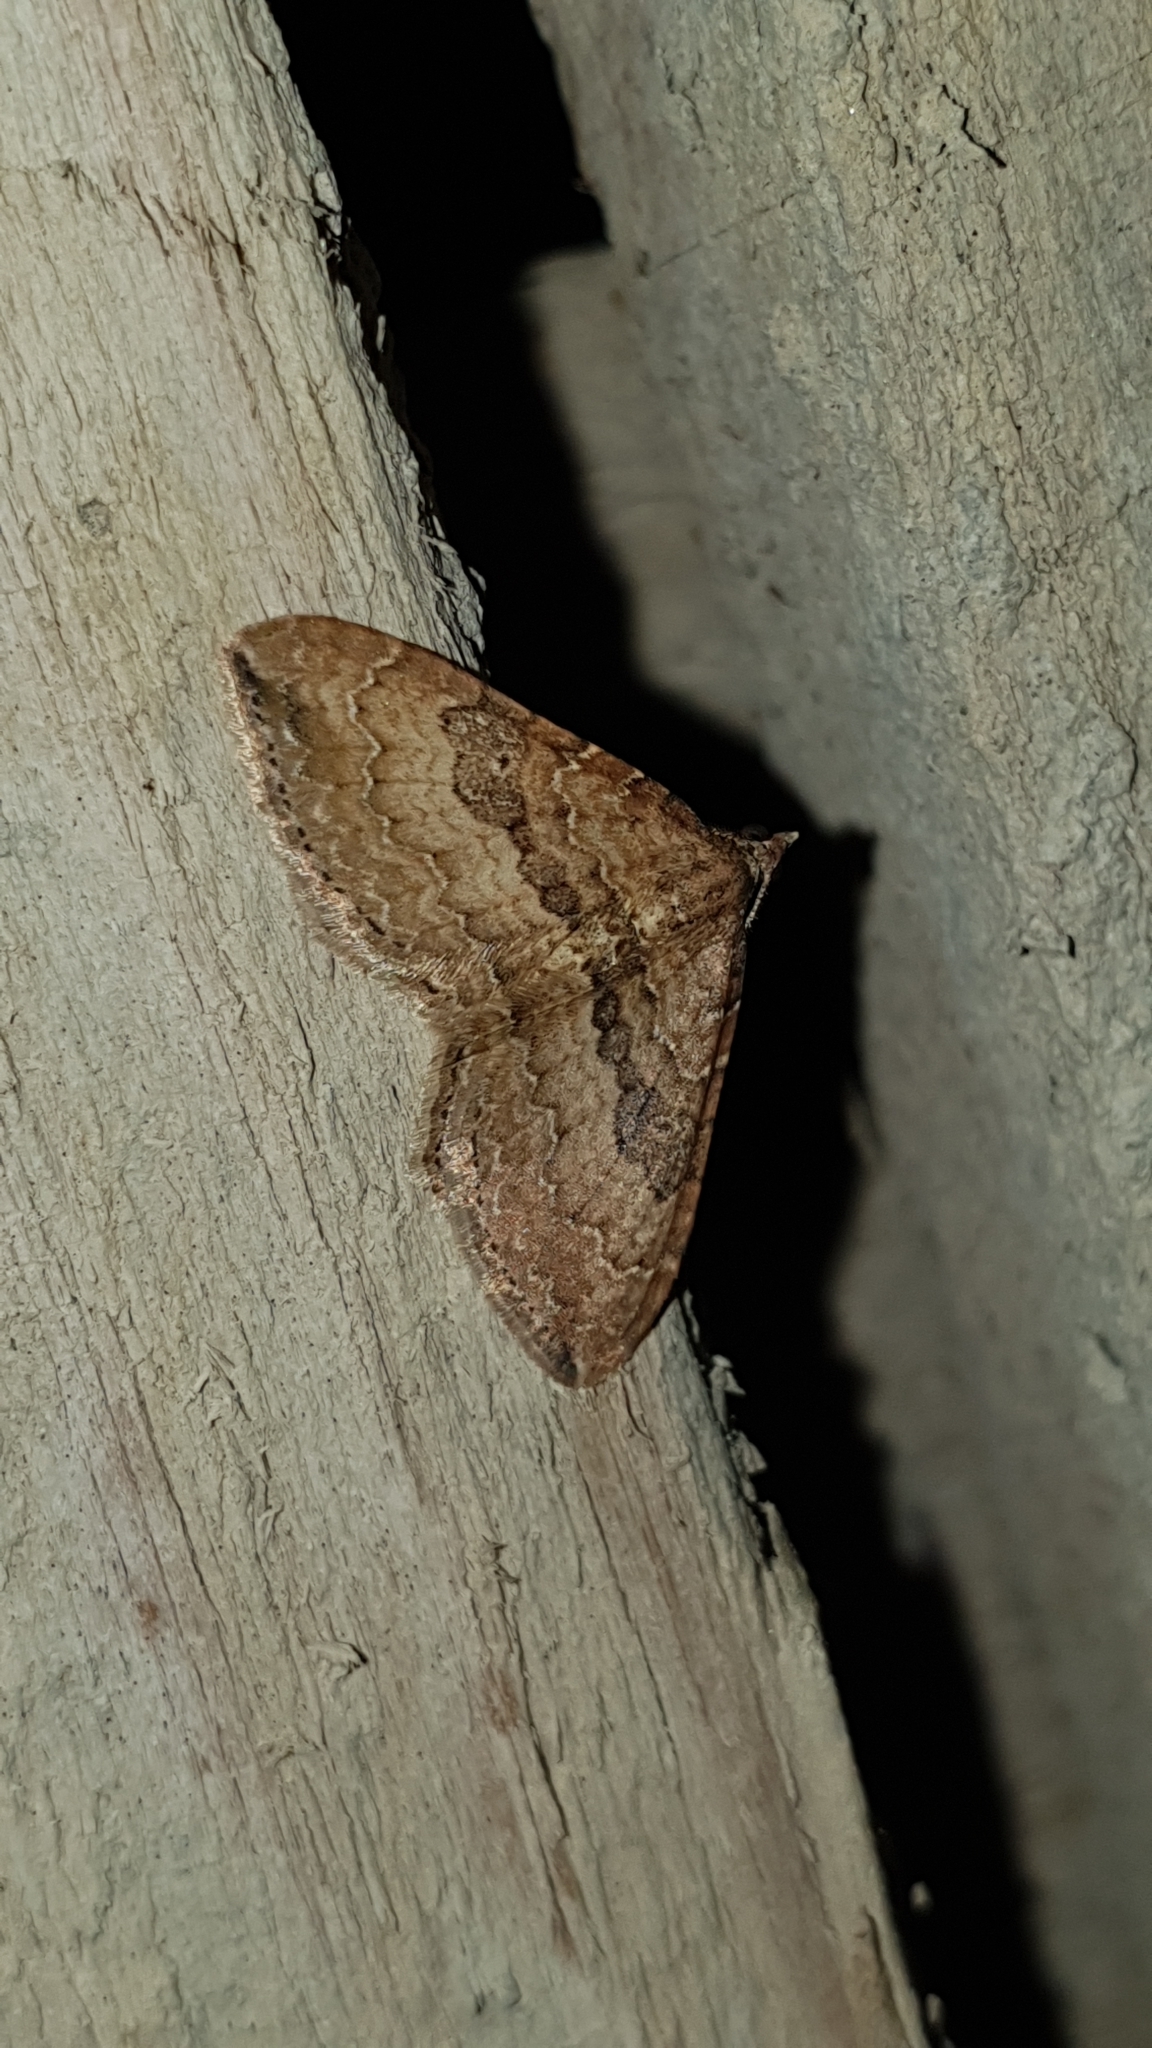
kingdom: Animalia
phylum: Arthropoda
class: Insecta
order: Lepidoptera
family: Geometridae
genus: Orthonama
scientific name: Orthonama obstipata
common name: The gem
